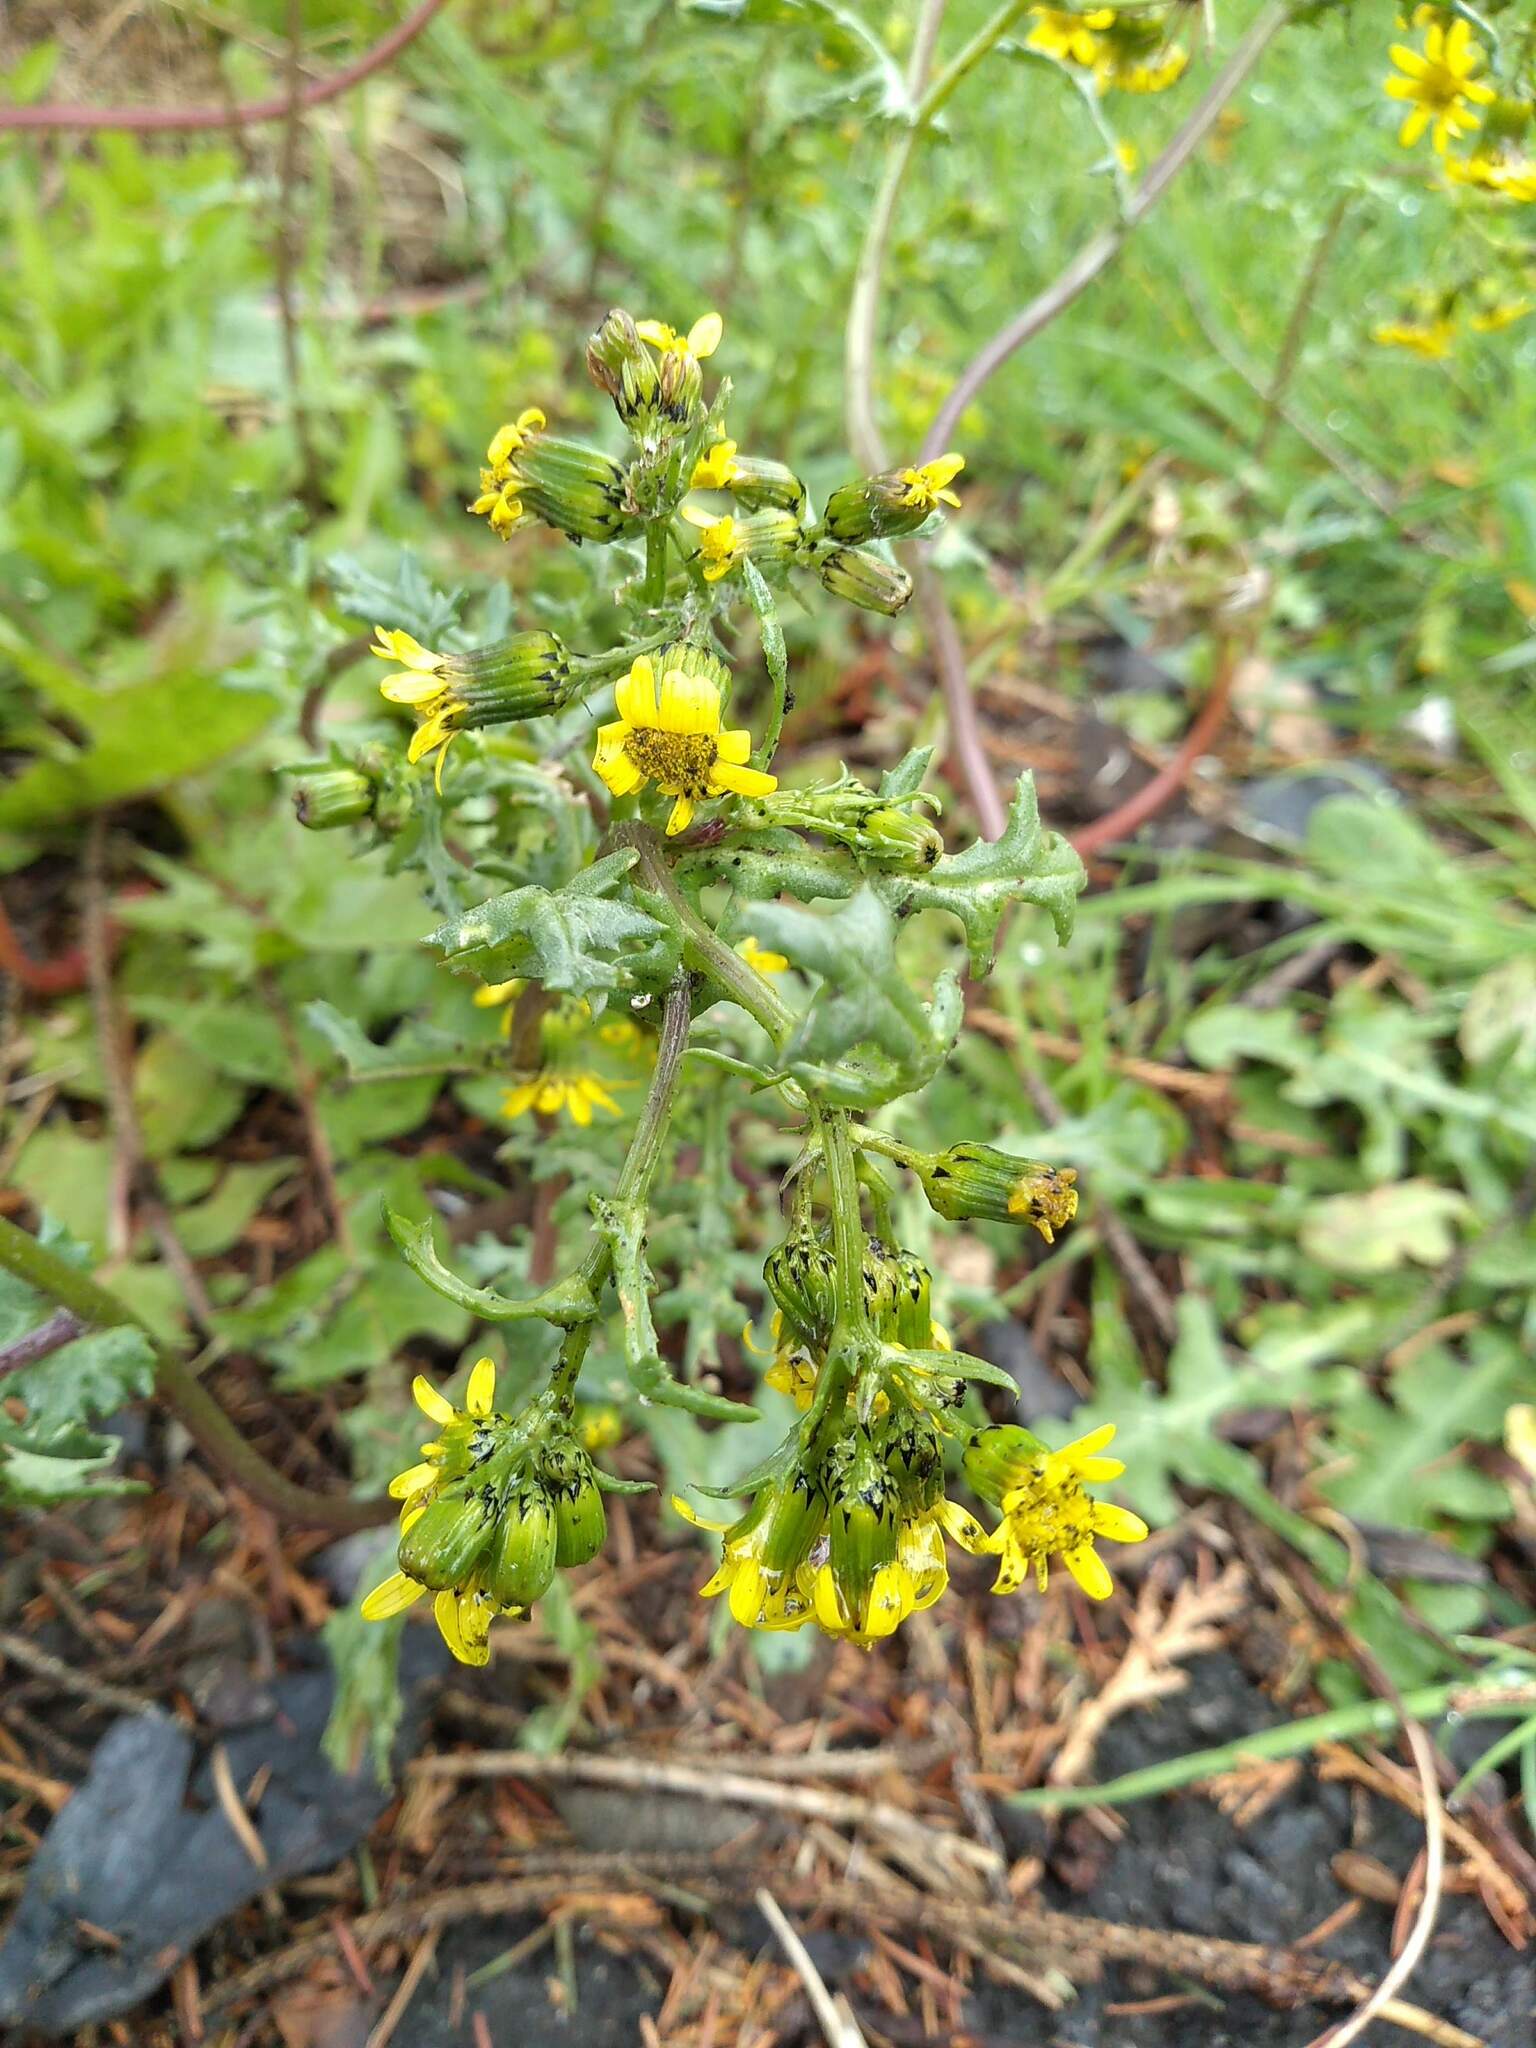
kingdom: Plantae
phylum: Tracheophyta
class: Magnoliopsida
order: Asterales
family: Asteraceae
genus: Senecio
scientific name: Senecio vulgaris
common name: Old-man-in-the-spring
